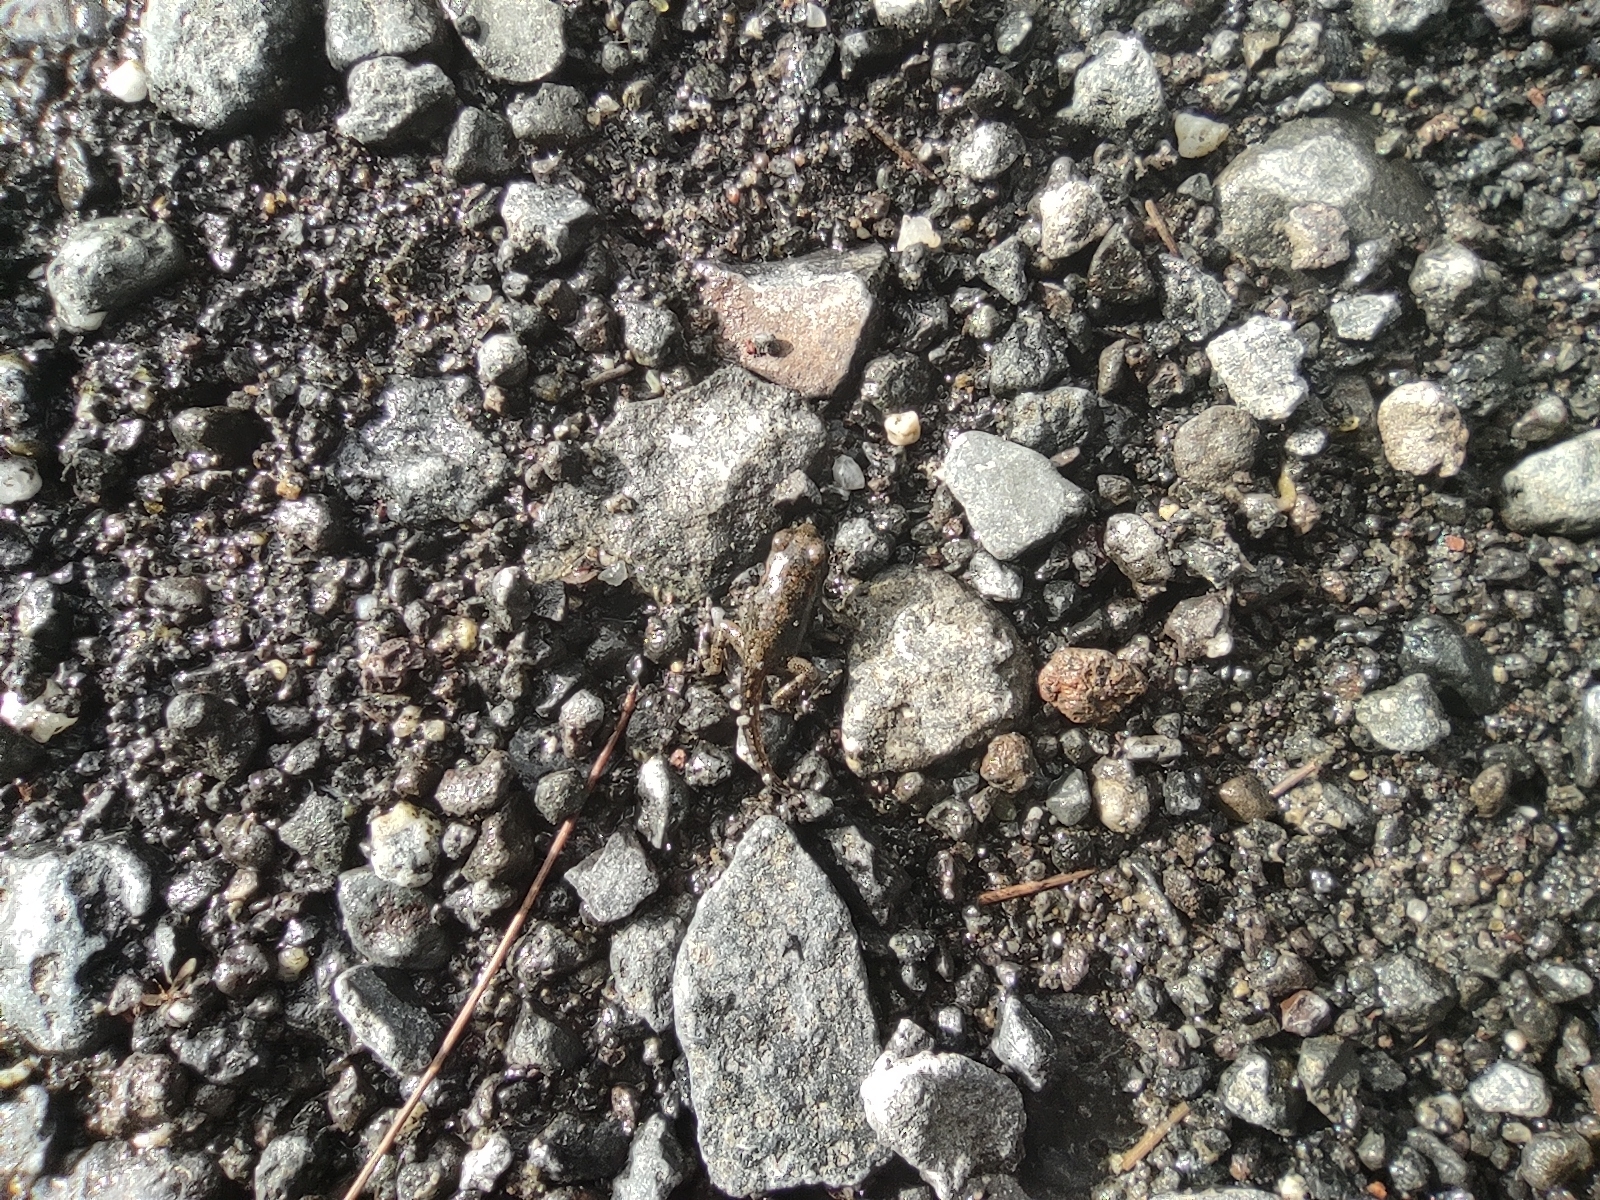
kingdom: Animalia
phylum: Chordata
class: Amphibia
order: Anura
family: Bufonidae
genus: Sclerophrys
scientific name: Sclerophrys gutturalis
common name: African common toad
